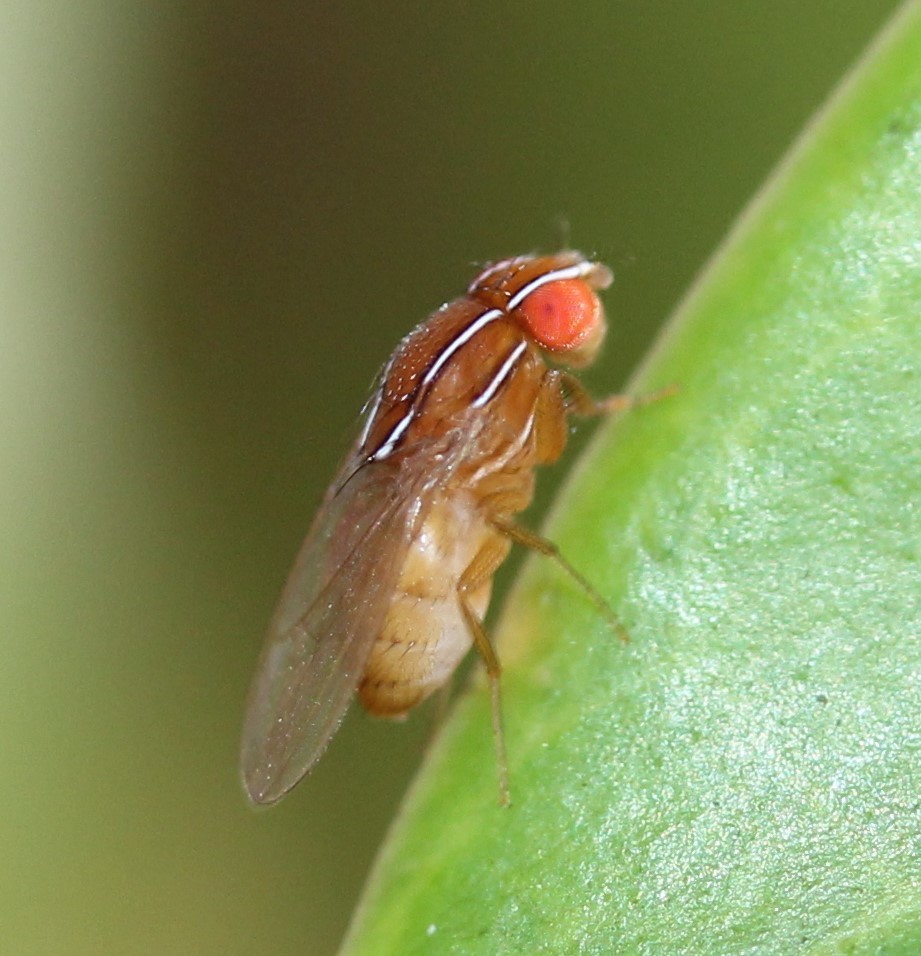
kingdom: Animalia
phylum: Arthropoda
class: Insecta
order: Diptera
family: Drosophilidae
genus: Zaprionus
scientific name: Zaprionus indianus
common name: African fig fly
